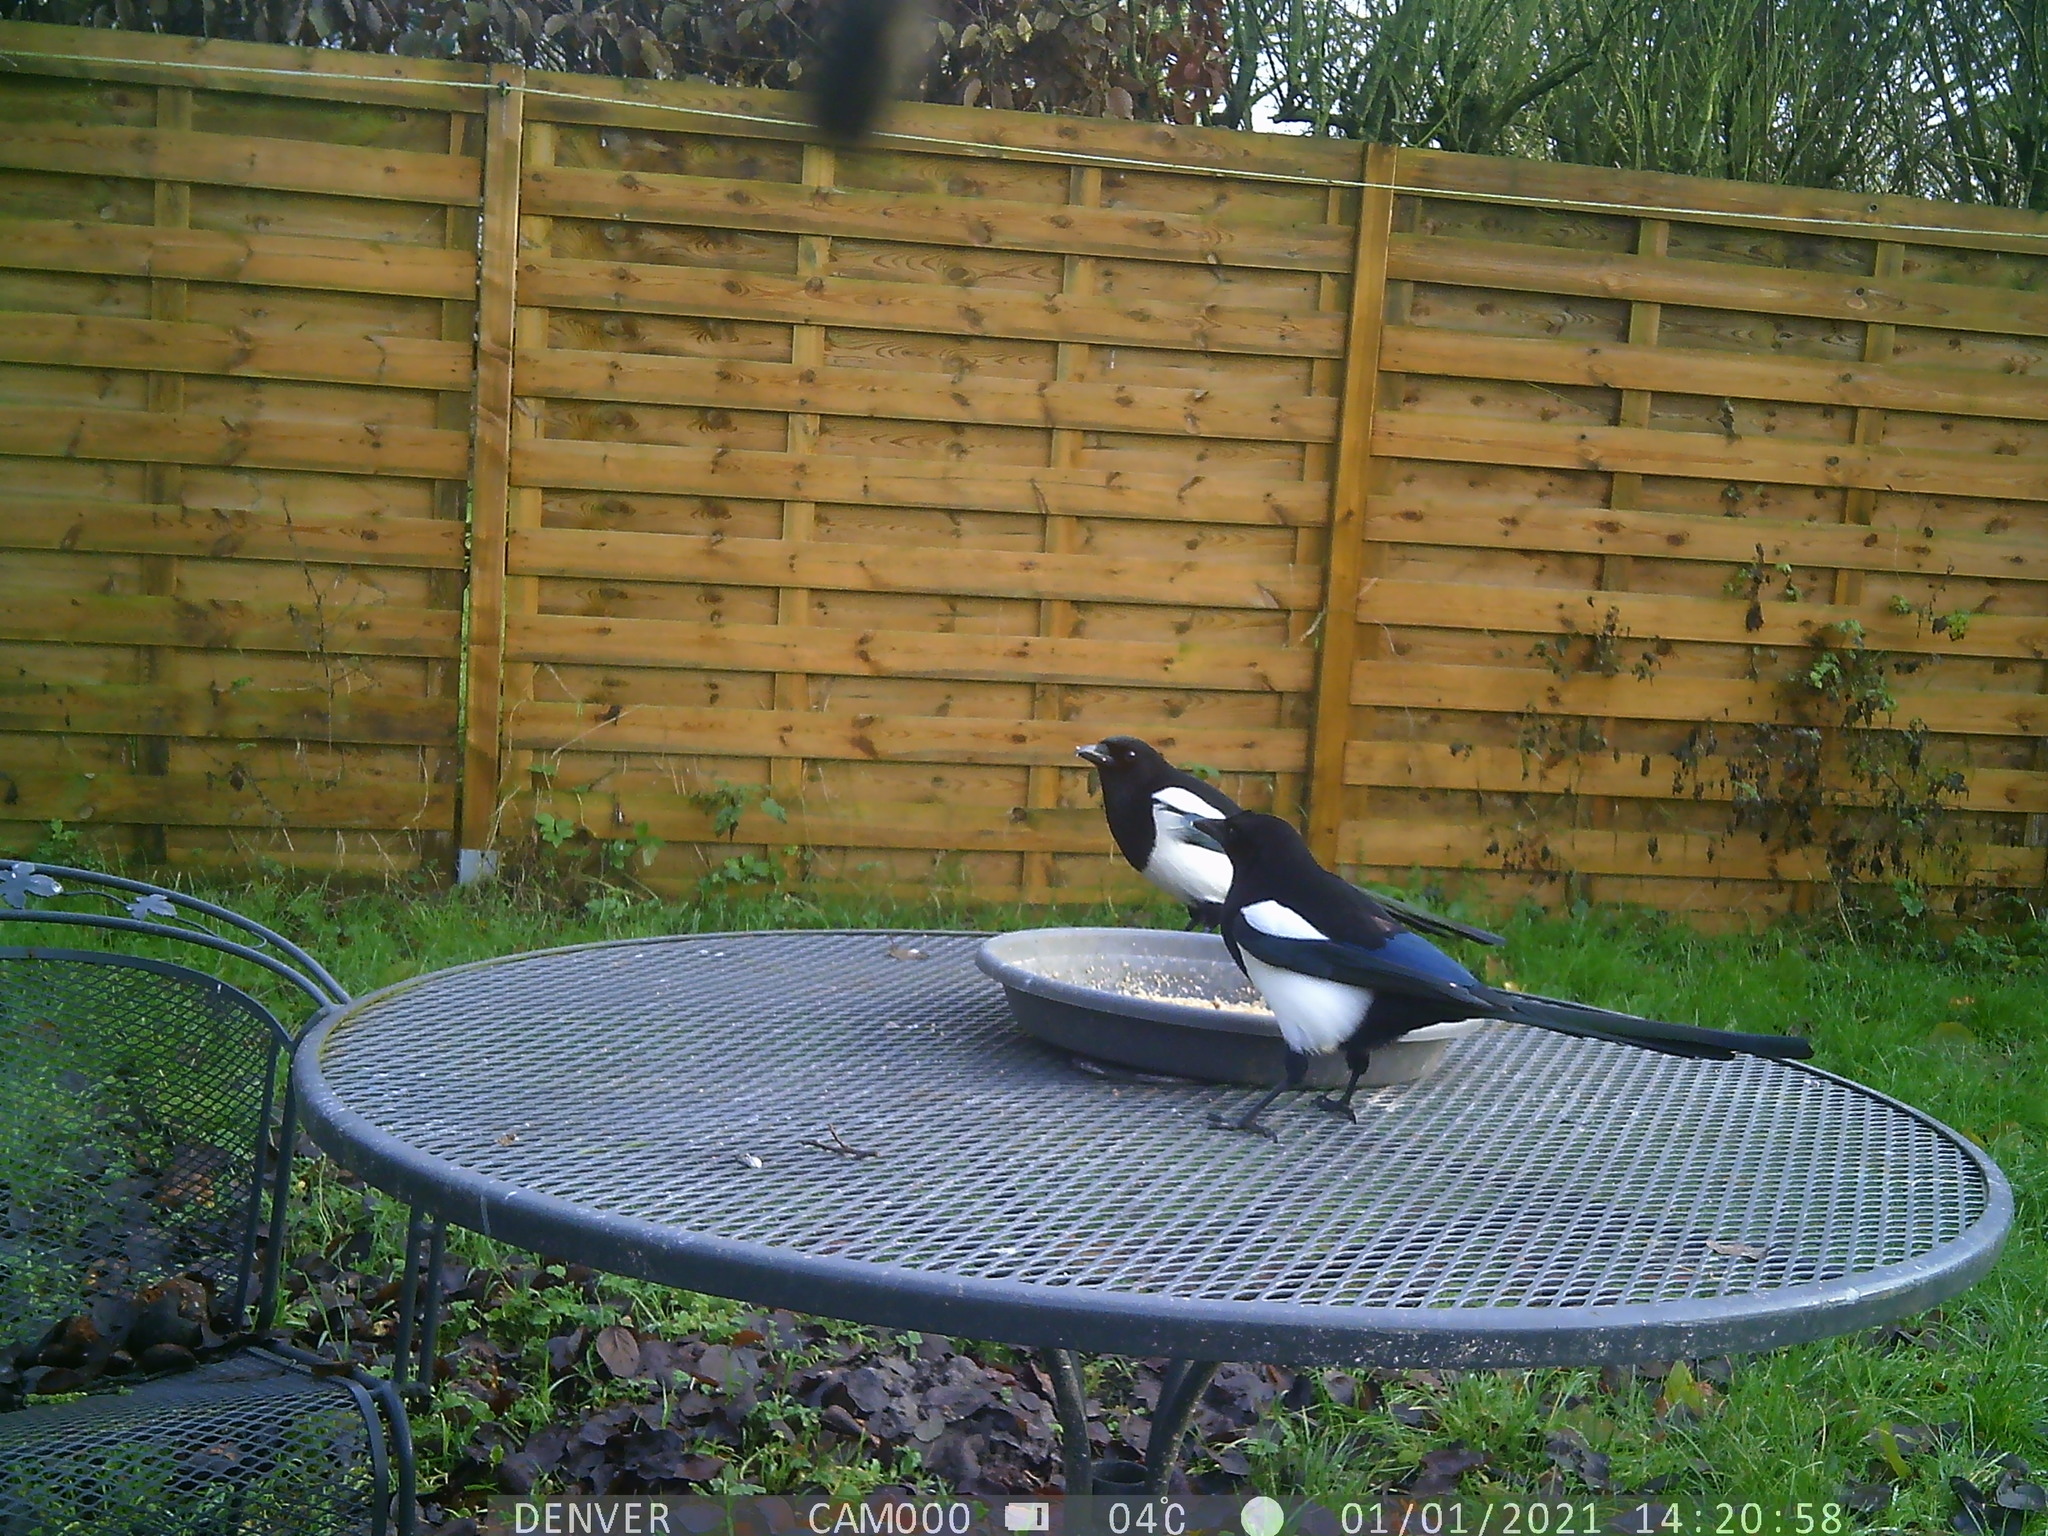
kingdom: Animalia
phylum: Chordata
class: Aves
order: Passeriformes
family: Corvidae
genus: Pica
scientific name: Pica pica
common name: Eurasian magpie
